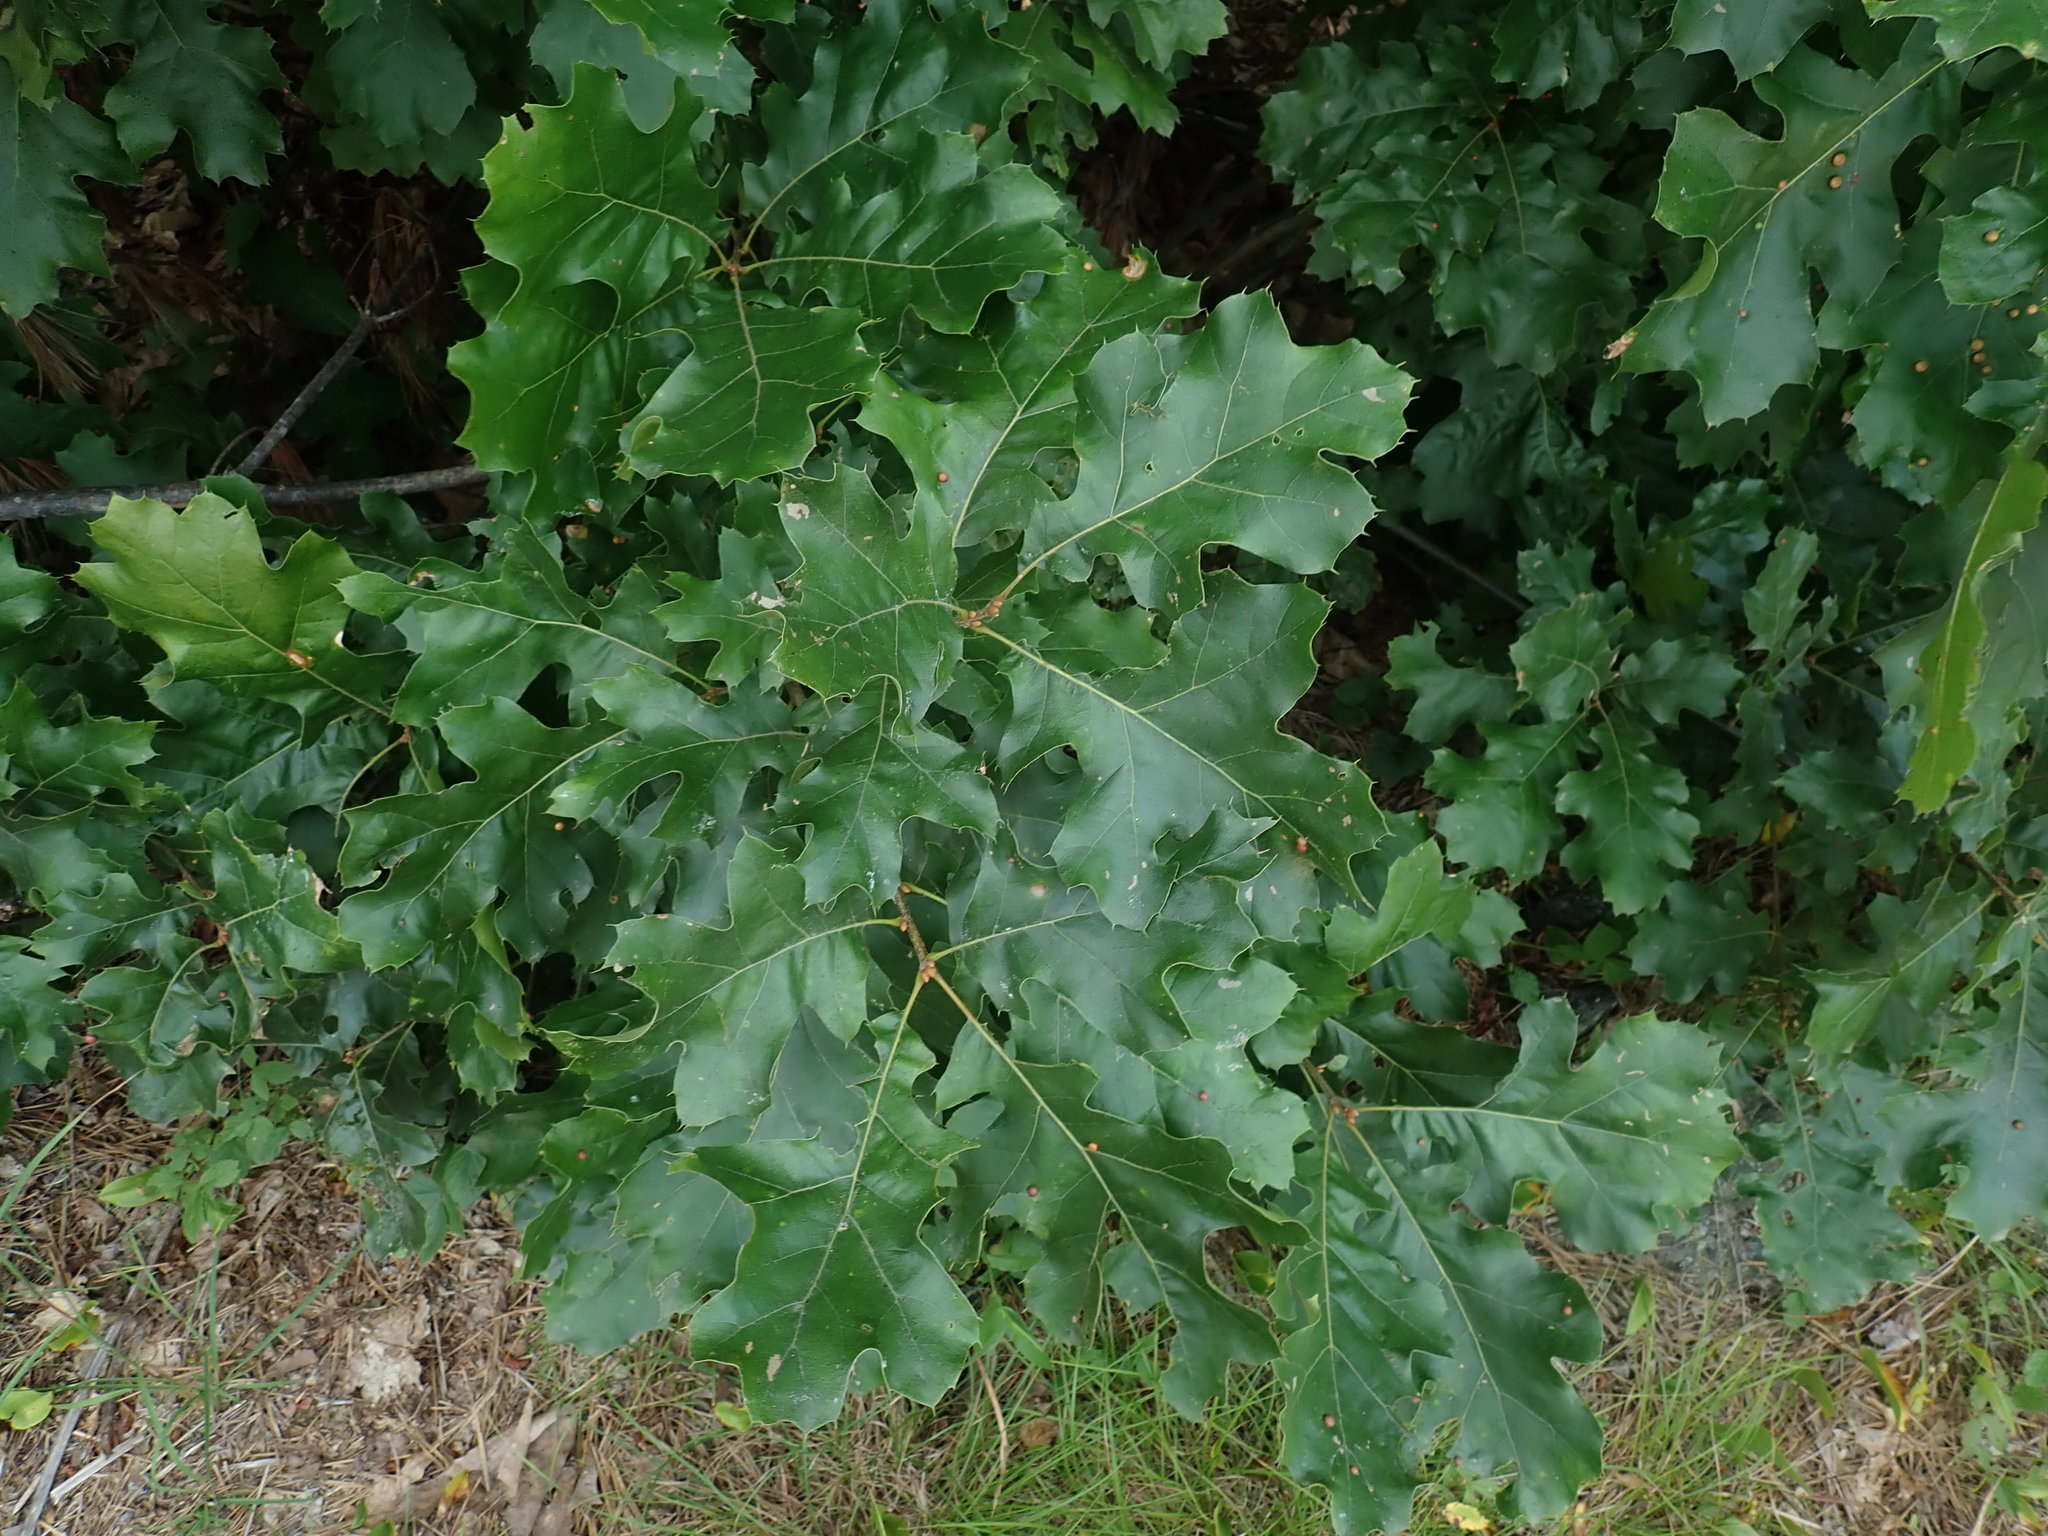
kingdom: Plantae
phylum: Tracheophyta
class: Magnoliopsida
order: Fagales
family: Fagaceae
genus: Quercus
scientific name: Quercus velutina
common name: Black oak
